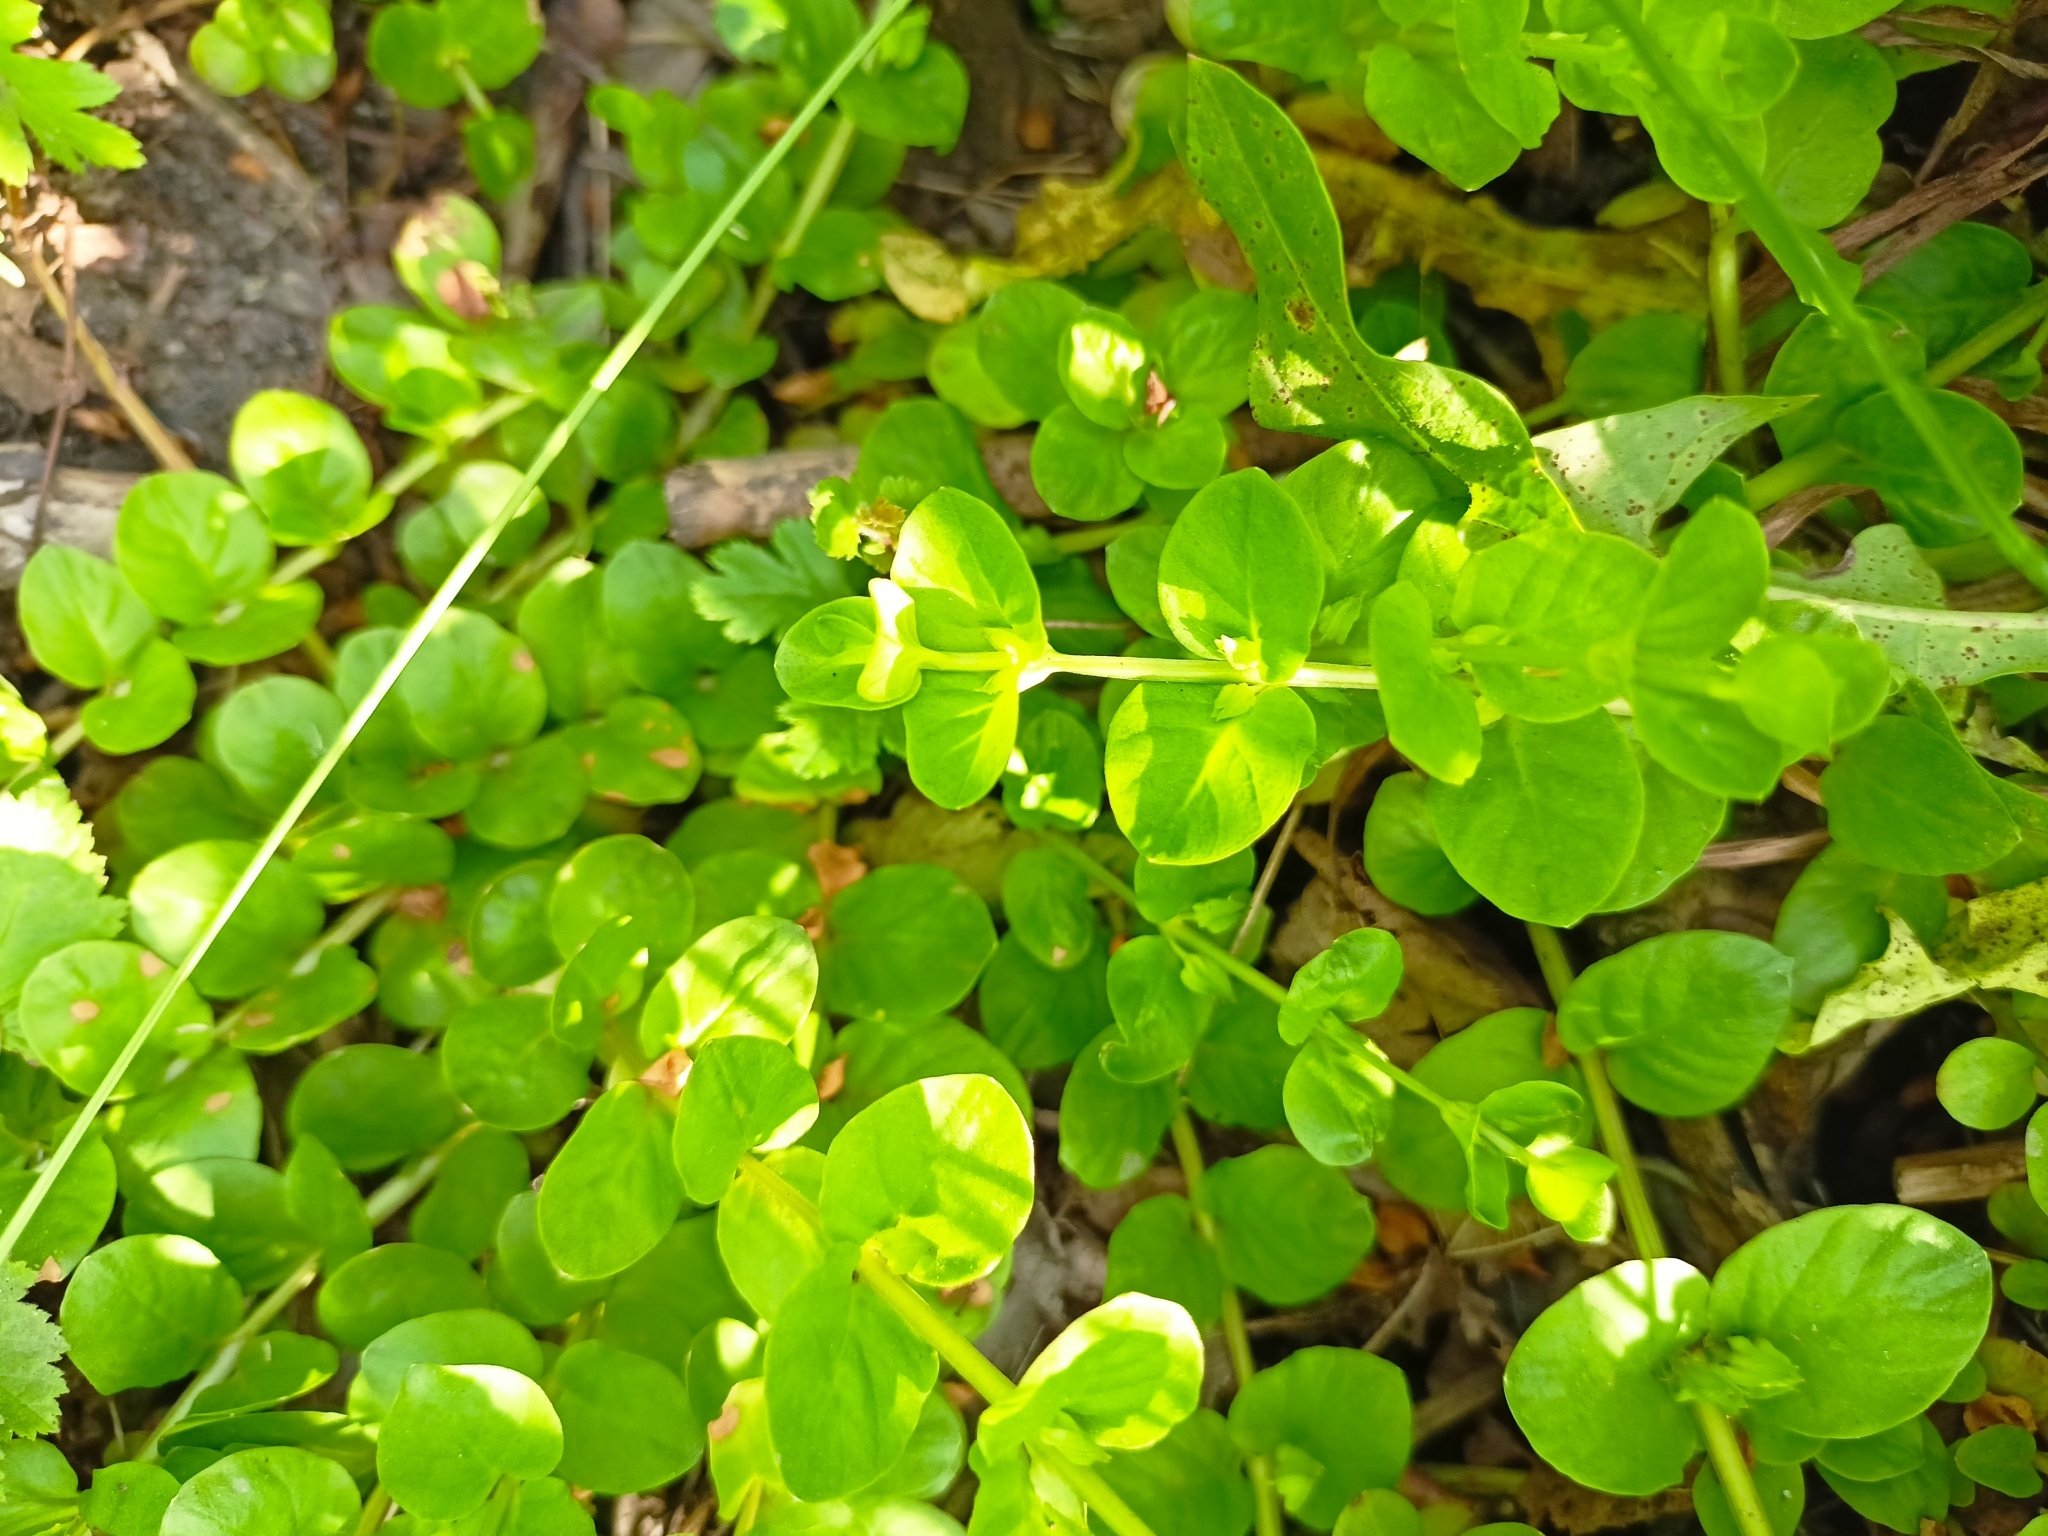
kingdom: Plantae
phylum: Tracheophyta
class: Magnoliopsida
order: Ericales
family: Primulaceae
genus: Lysimachia
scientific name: Lysimachia nummularia
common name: Moneywort
